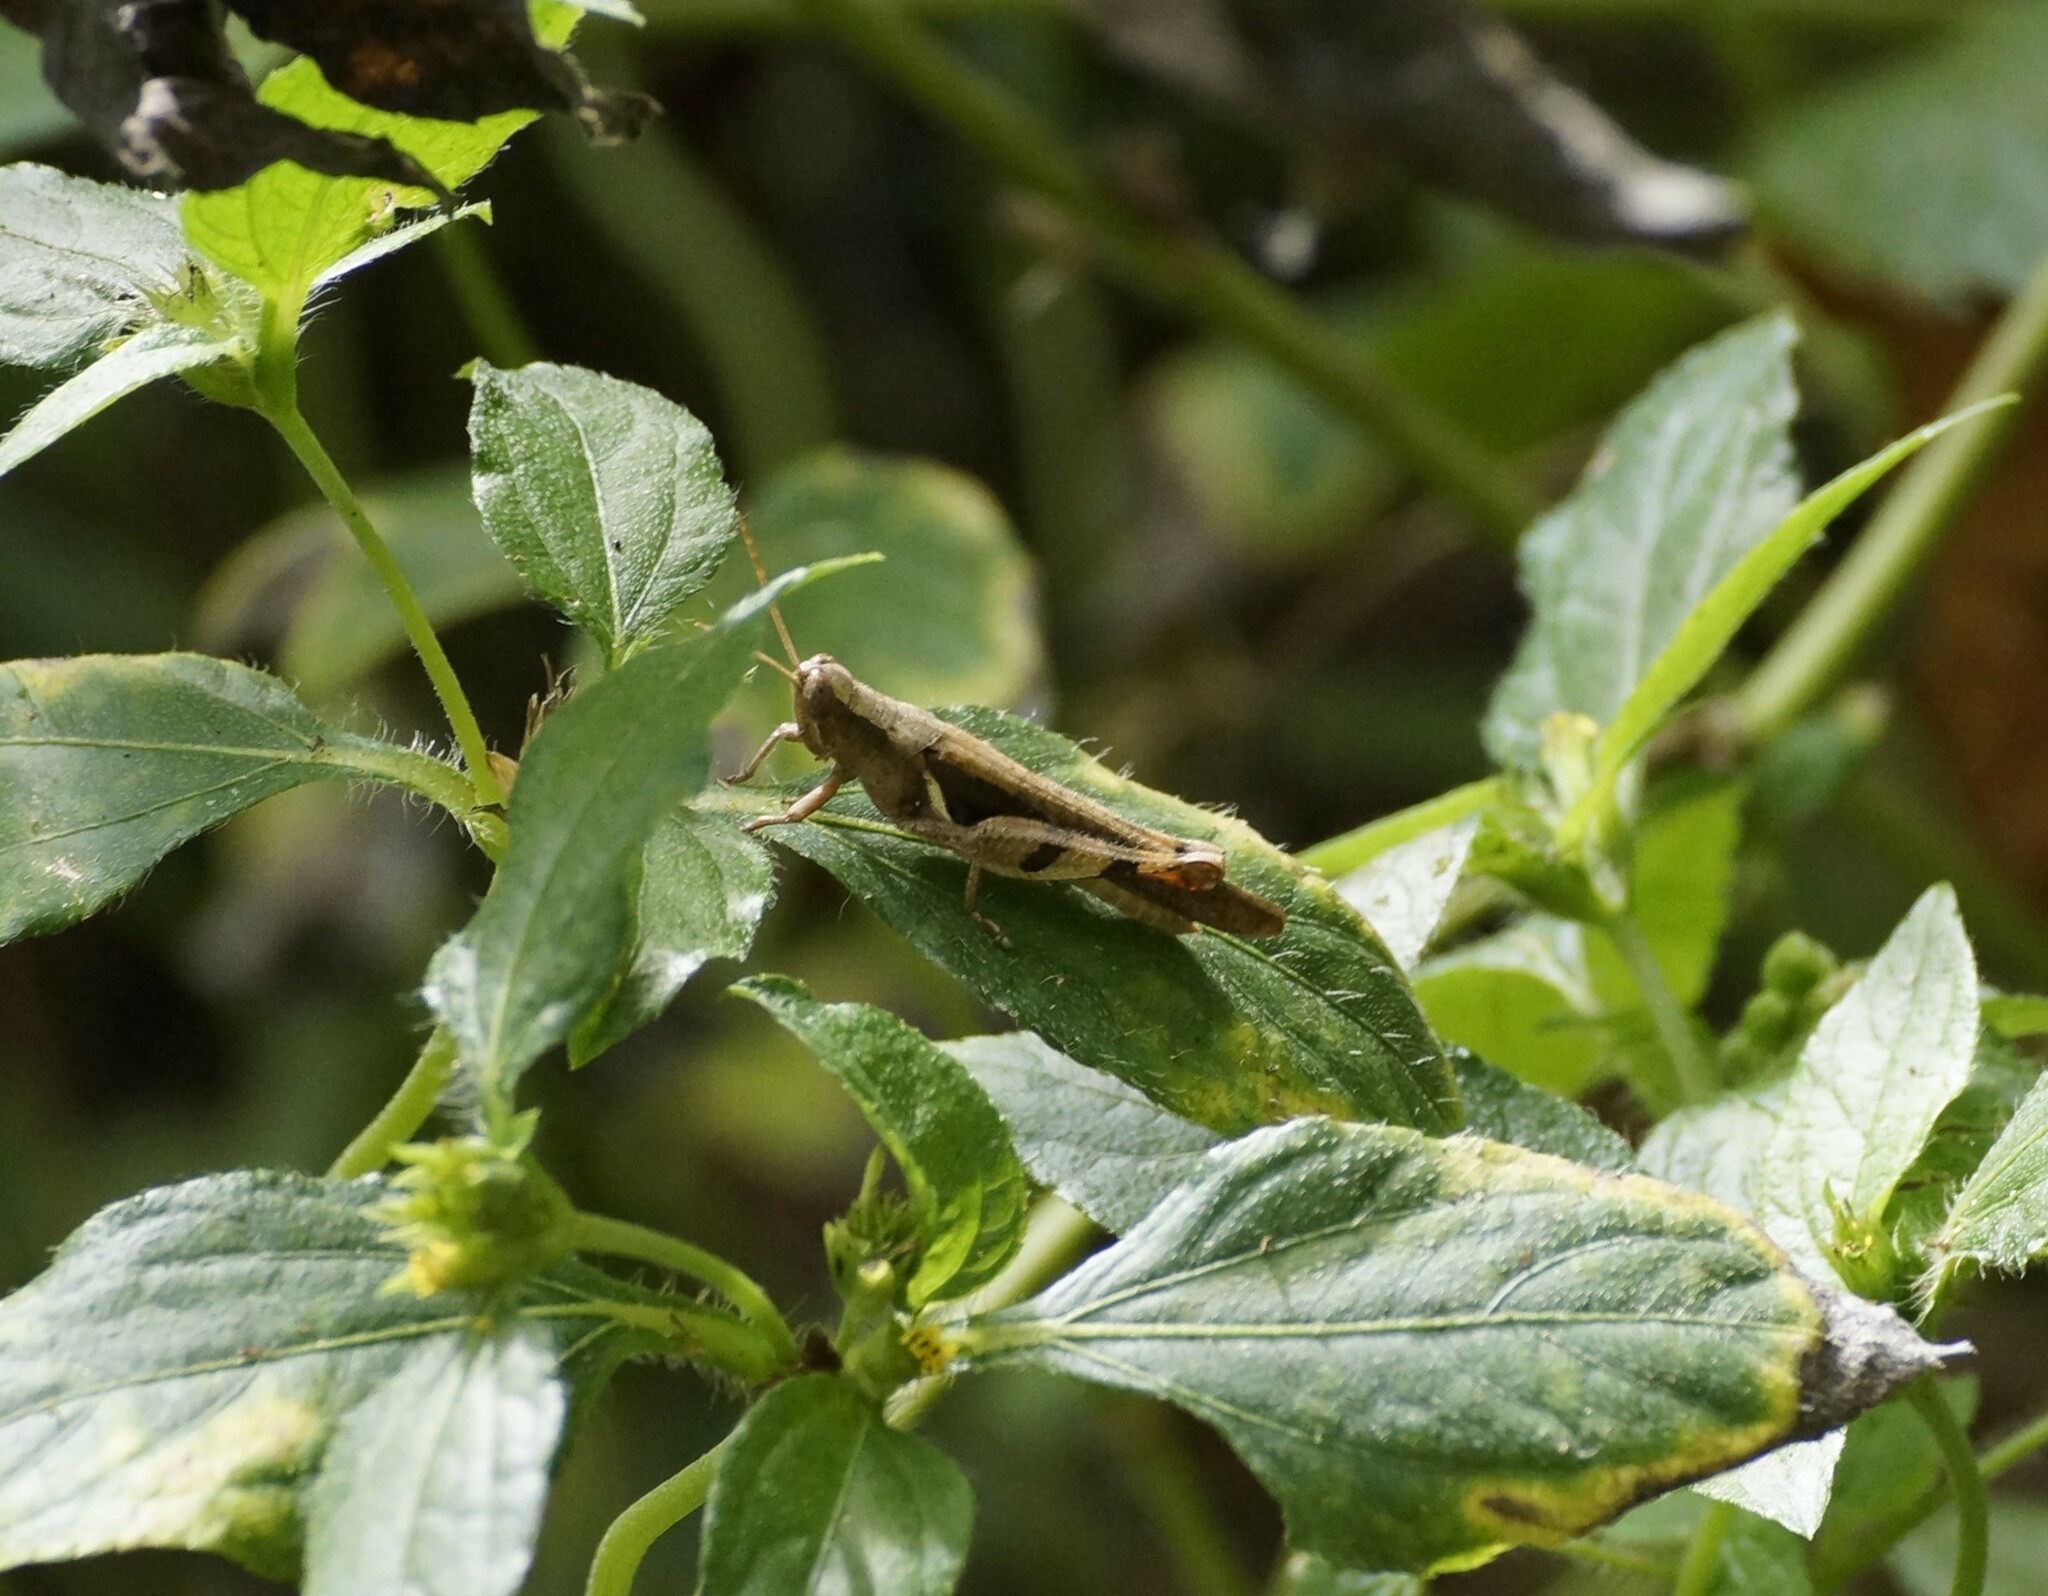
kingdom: Animalia
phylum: Arthropoda
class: Insecta
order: Orthoptera
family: Acrididae
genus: Stenocatantops
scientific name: Stenocatantops angustifrons
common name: Common tropical sharptail
